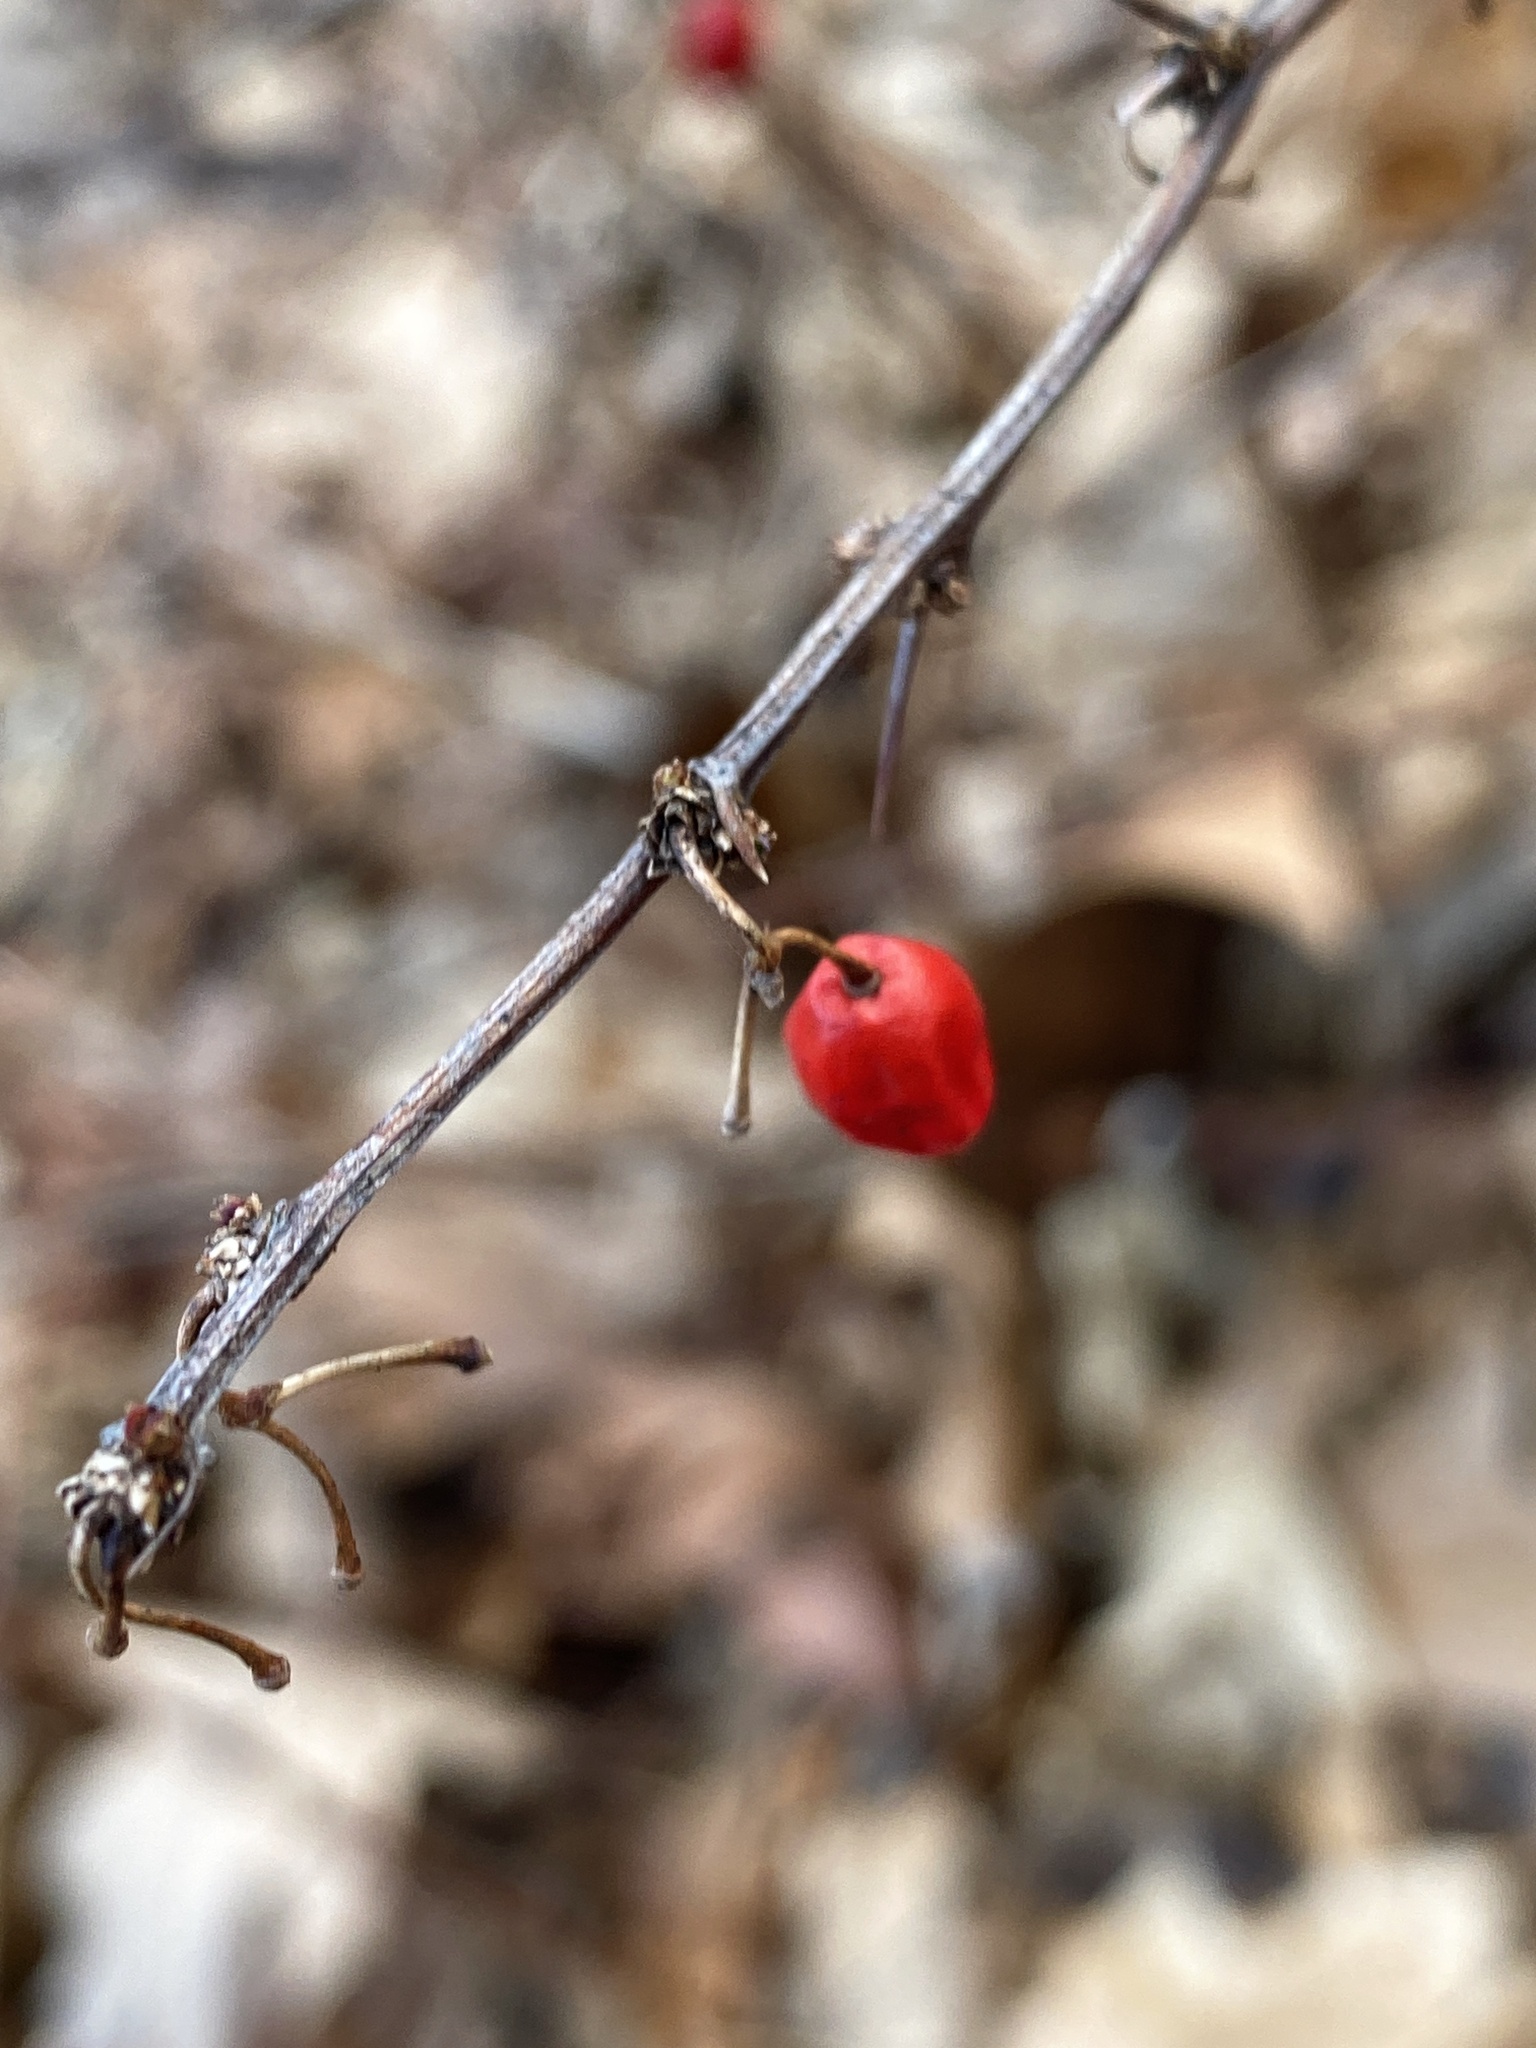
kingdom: Plantae
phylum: Tracheophyta
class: Magnoliopsida
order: Ranunculales
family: Berberidaceae
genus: Berberis
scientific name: Berberis thunbergii
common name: Japanese barberry
